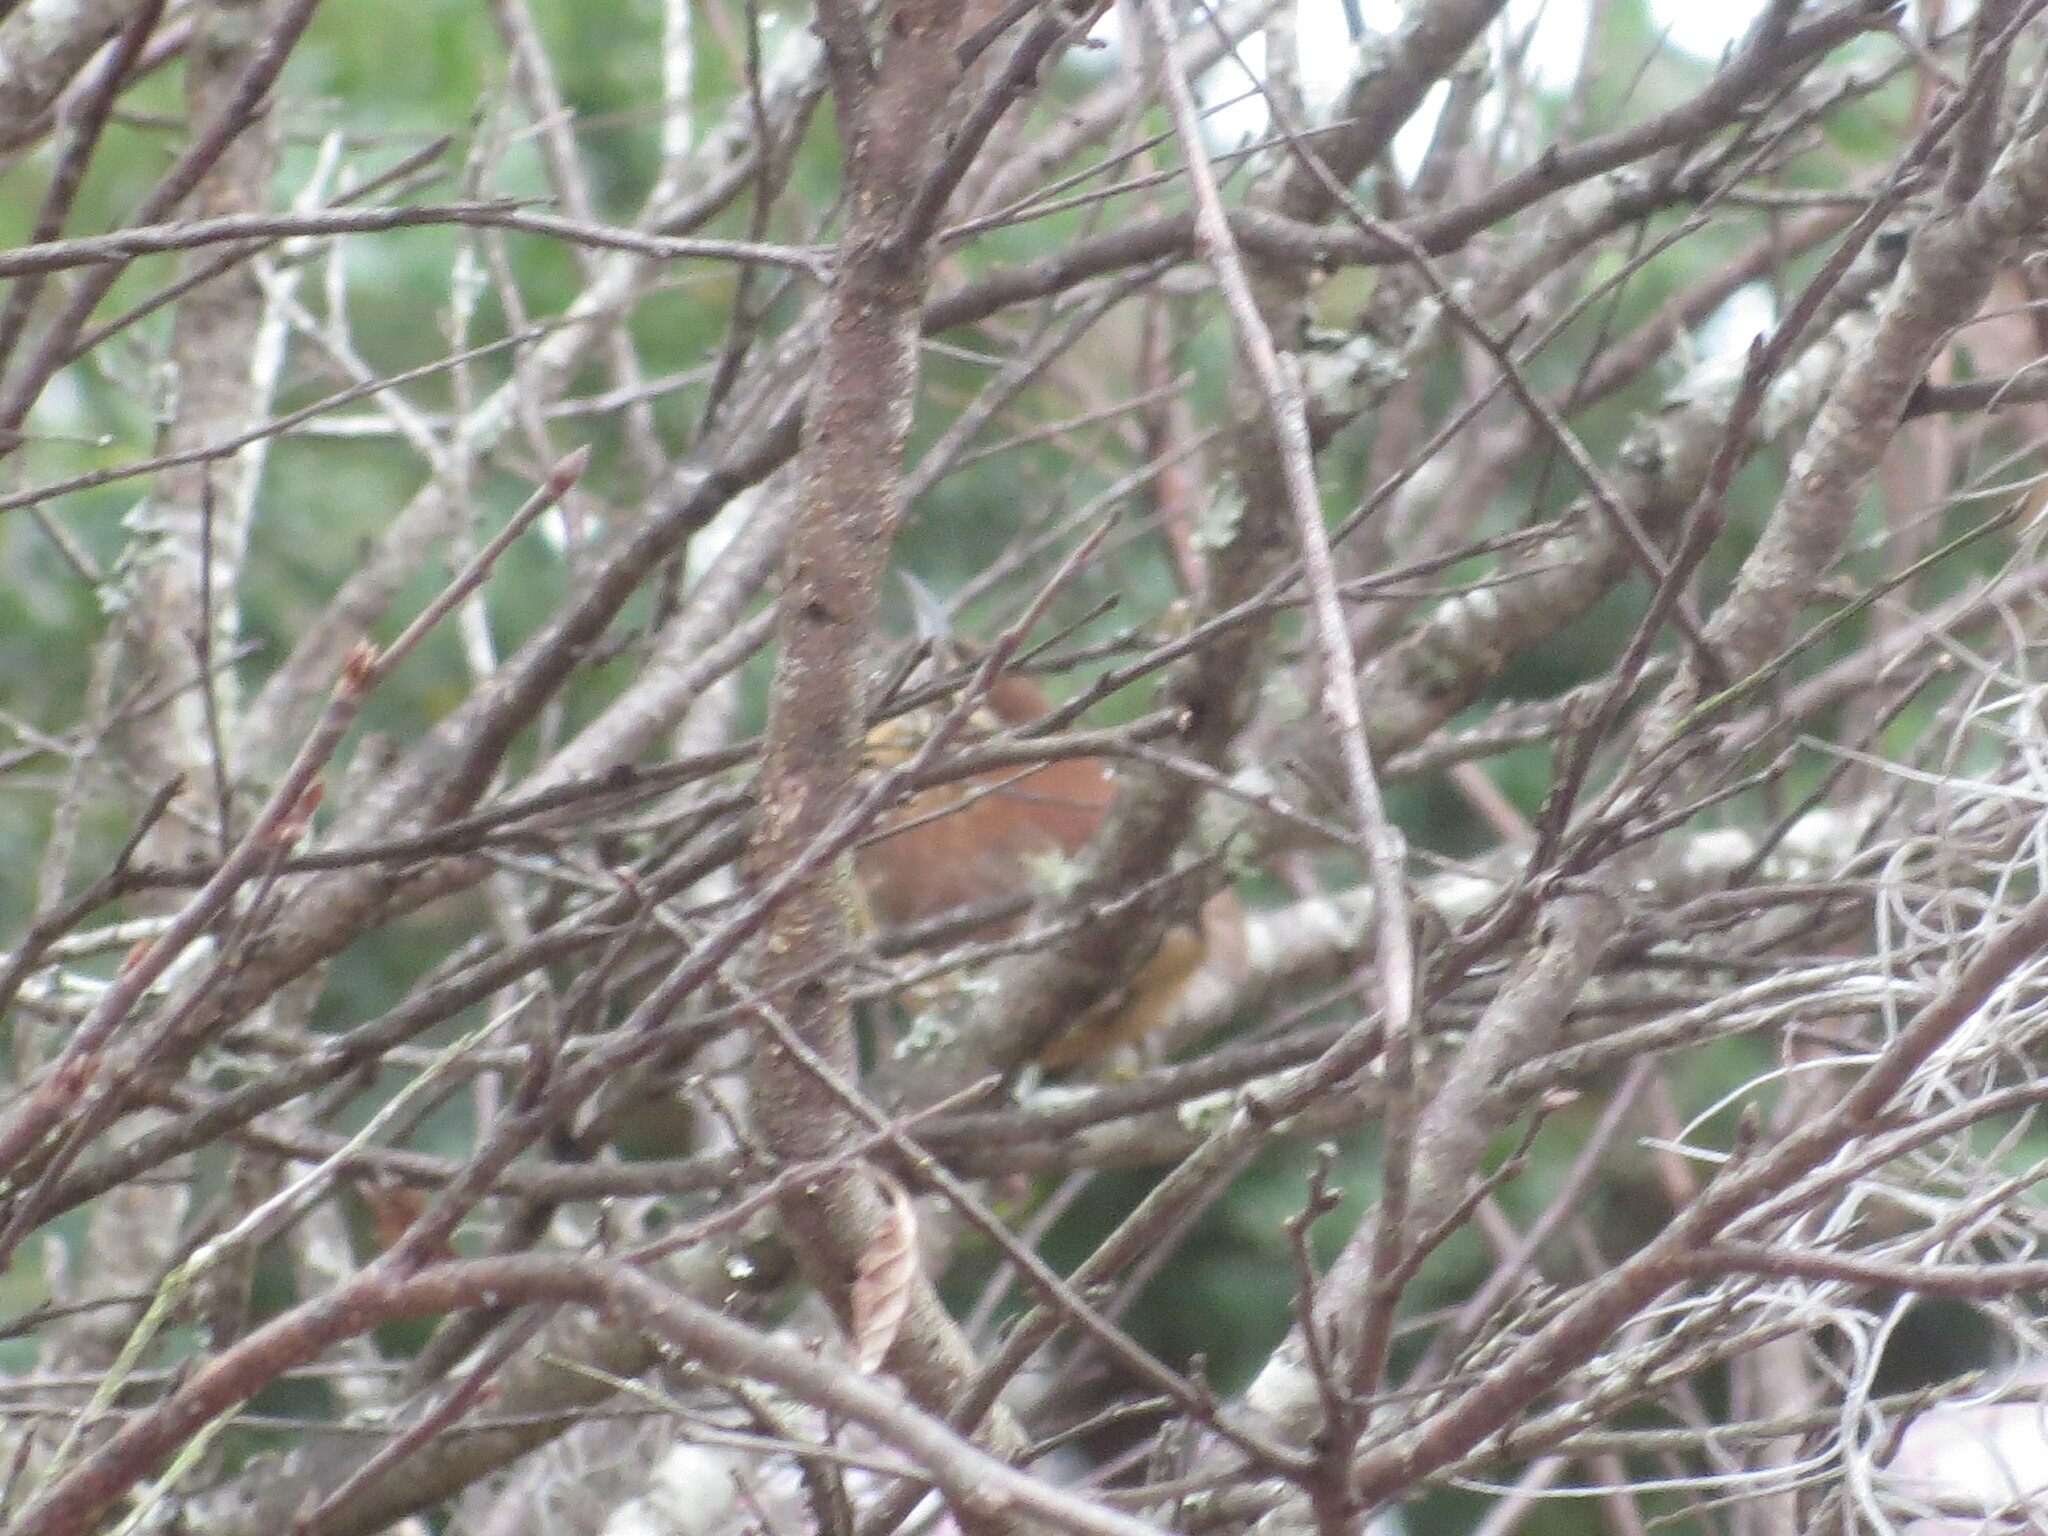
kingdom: Animalia
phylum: Chordata
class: Aves
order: Passeriformes
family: Troglodytidae
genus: Thryothorus
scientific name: Thryothorus ludovicianus
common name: Carolina wren
